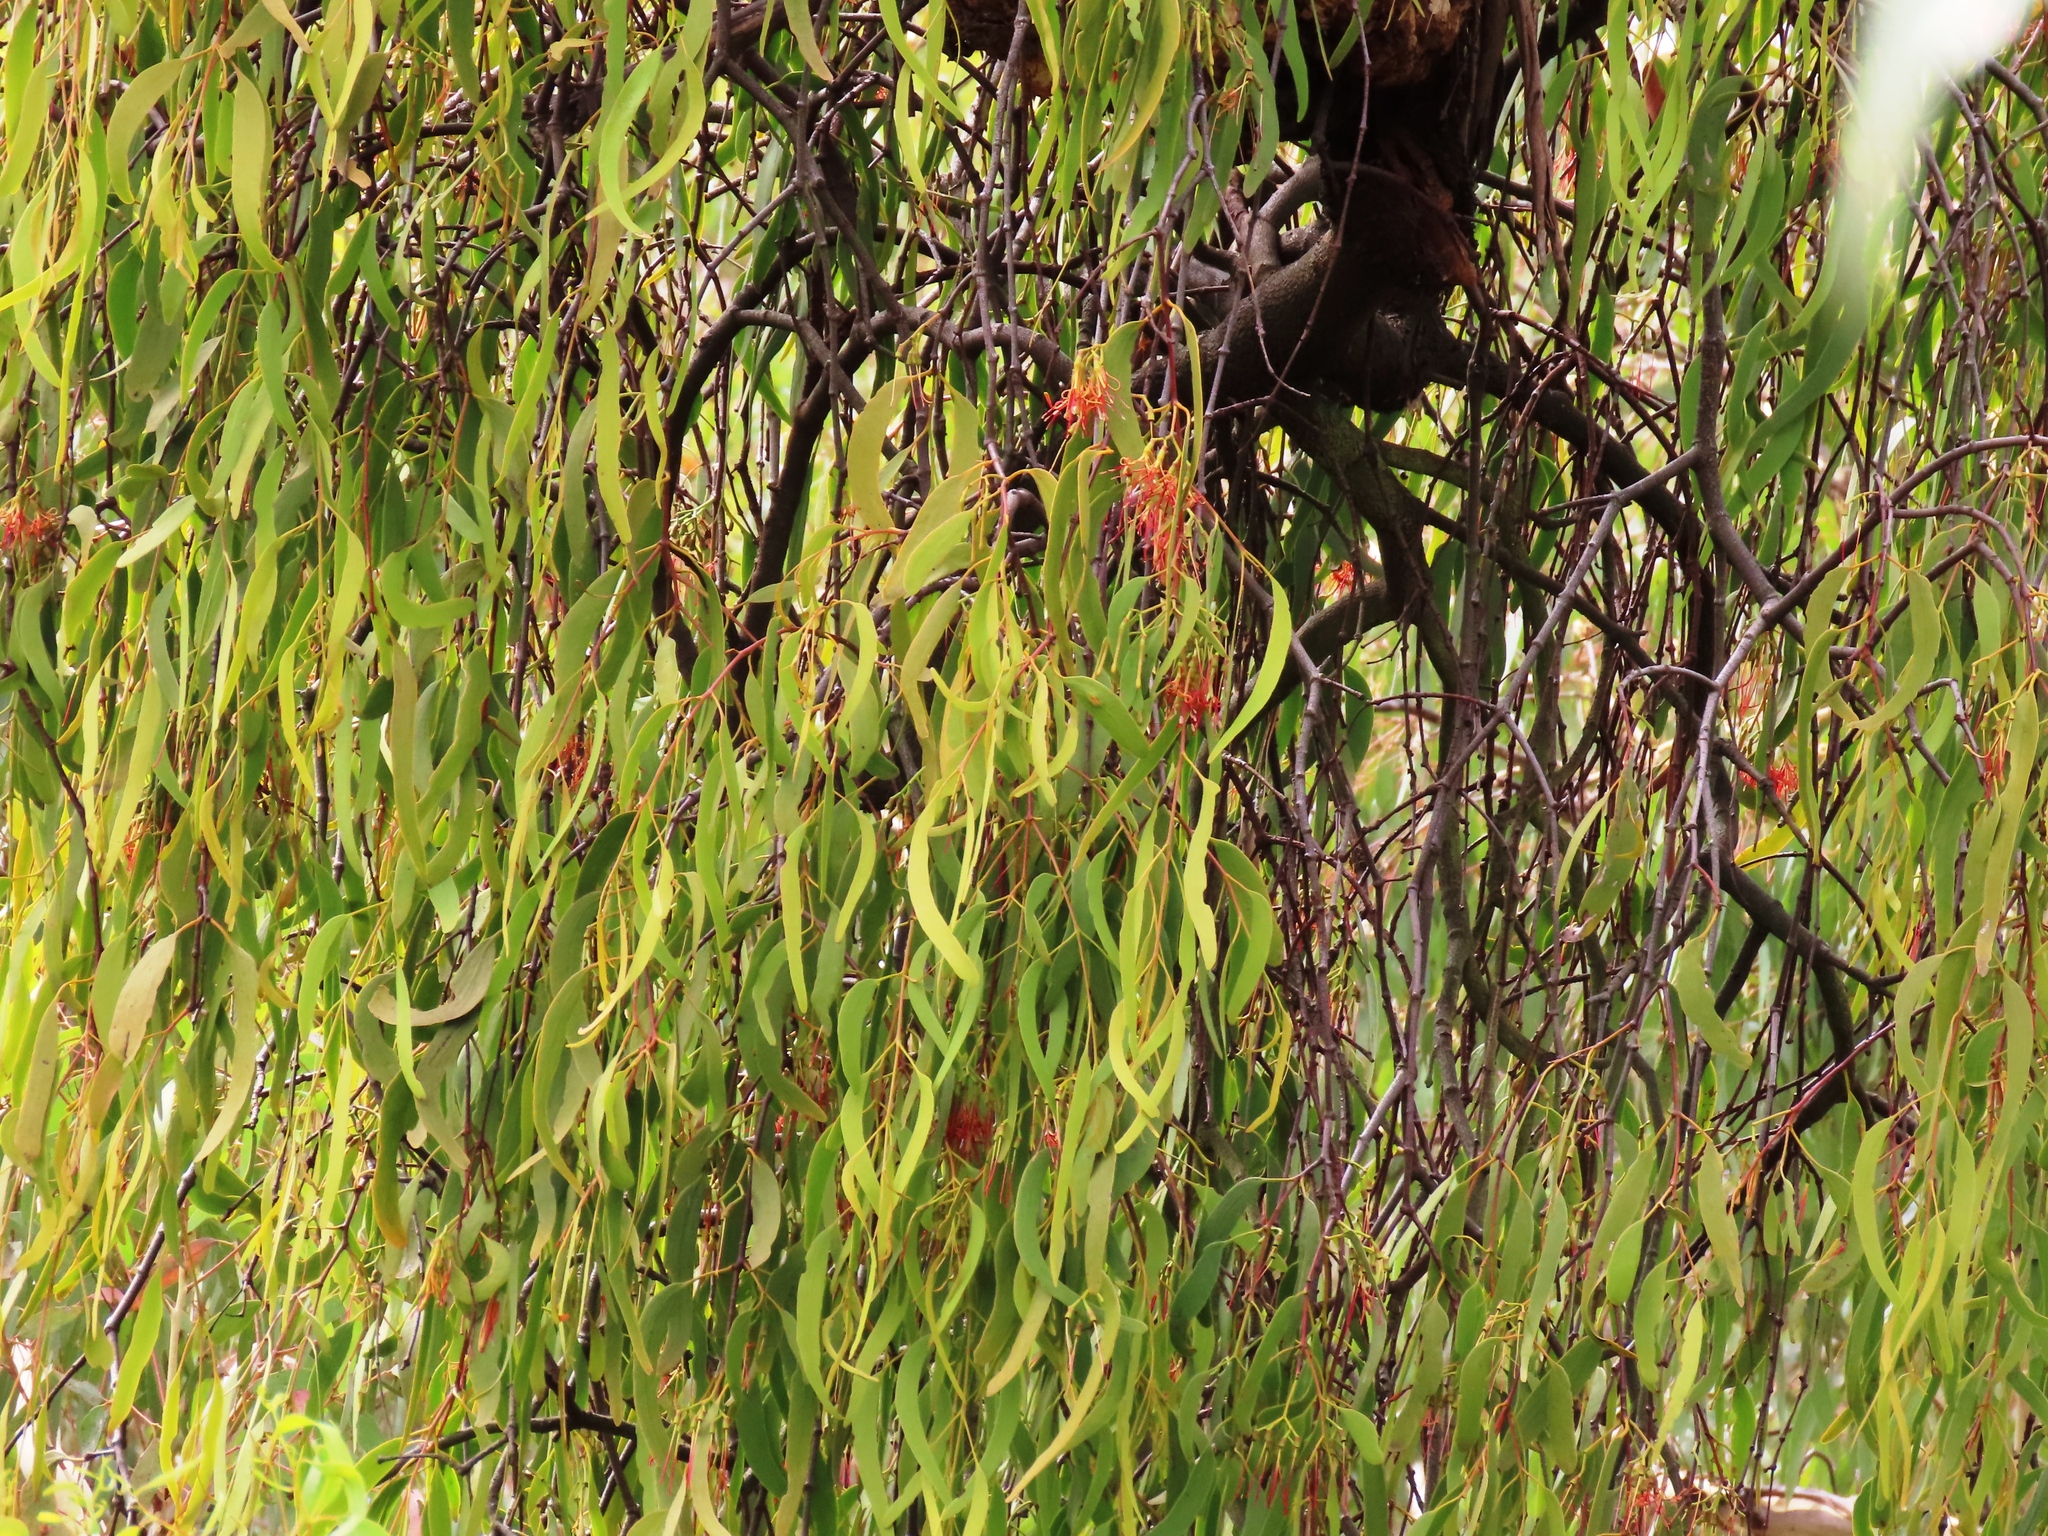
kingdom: Plantae
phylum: Tracheophyta
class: Magnoliopsida
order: Santalales
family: Loranthaceae
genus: Amyema
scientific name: Amyema miquelii
